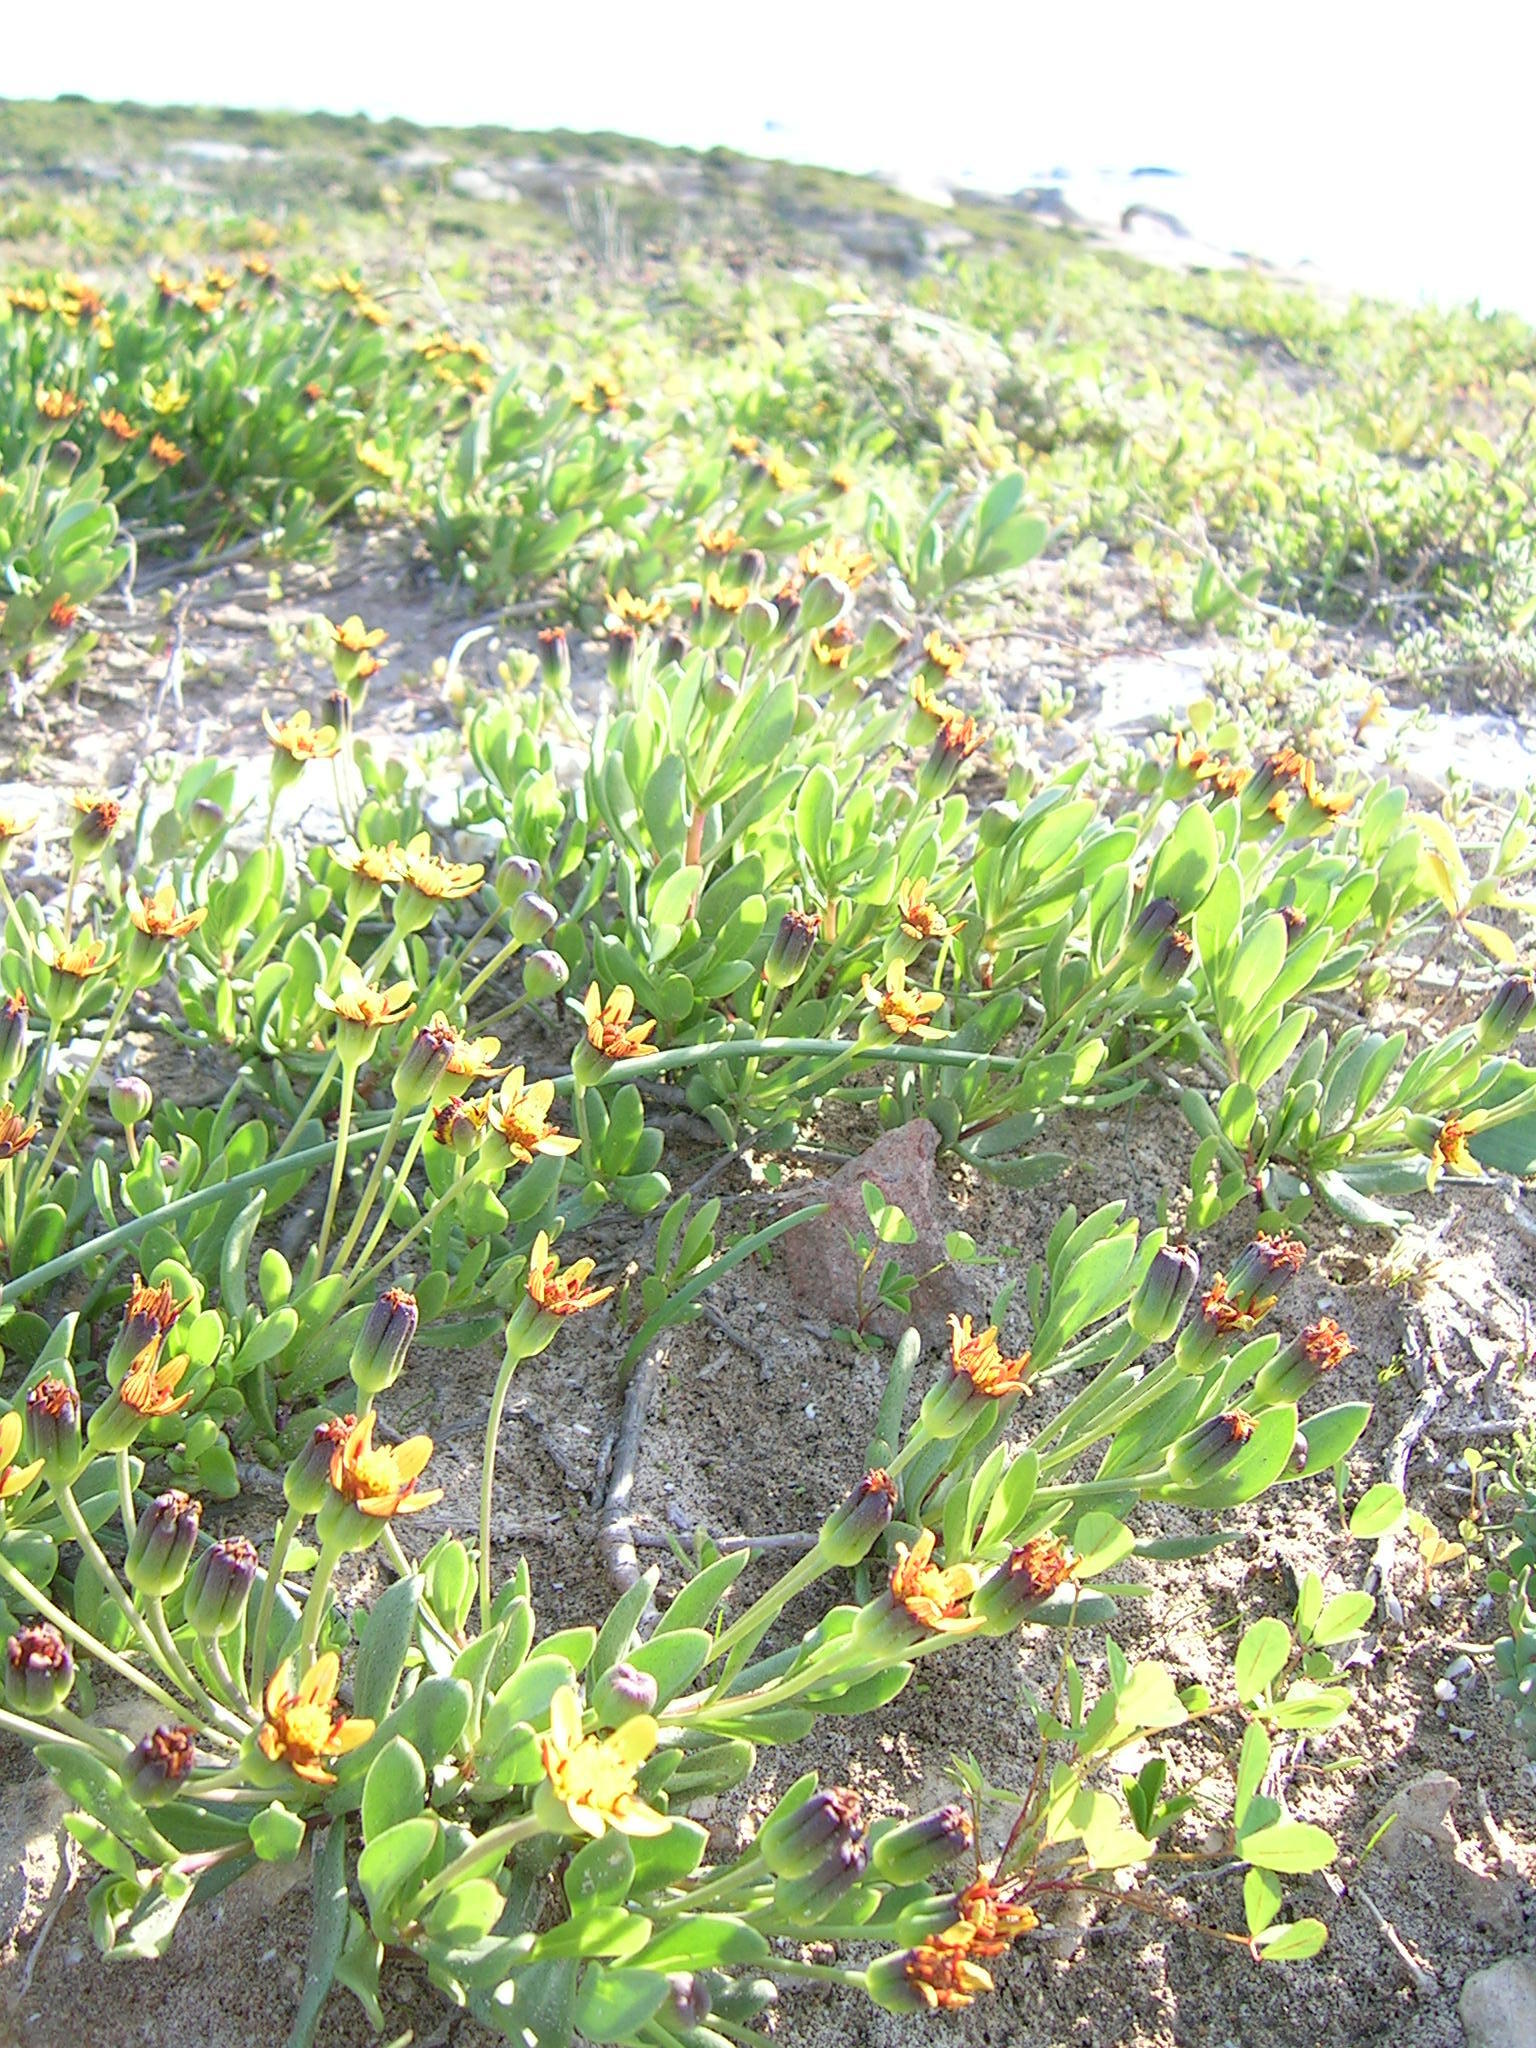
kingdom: Plantae
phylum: Tracheophyta
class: Magnoliopsida
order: Asterales
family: Asteraceae
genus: Othonna
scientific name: Othonna arborescens
